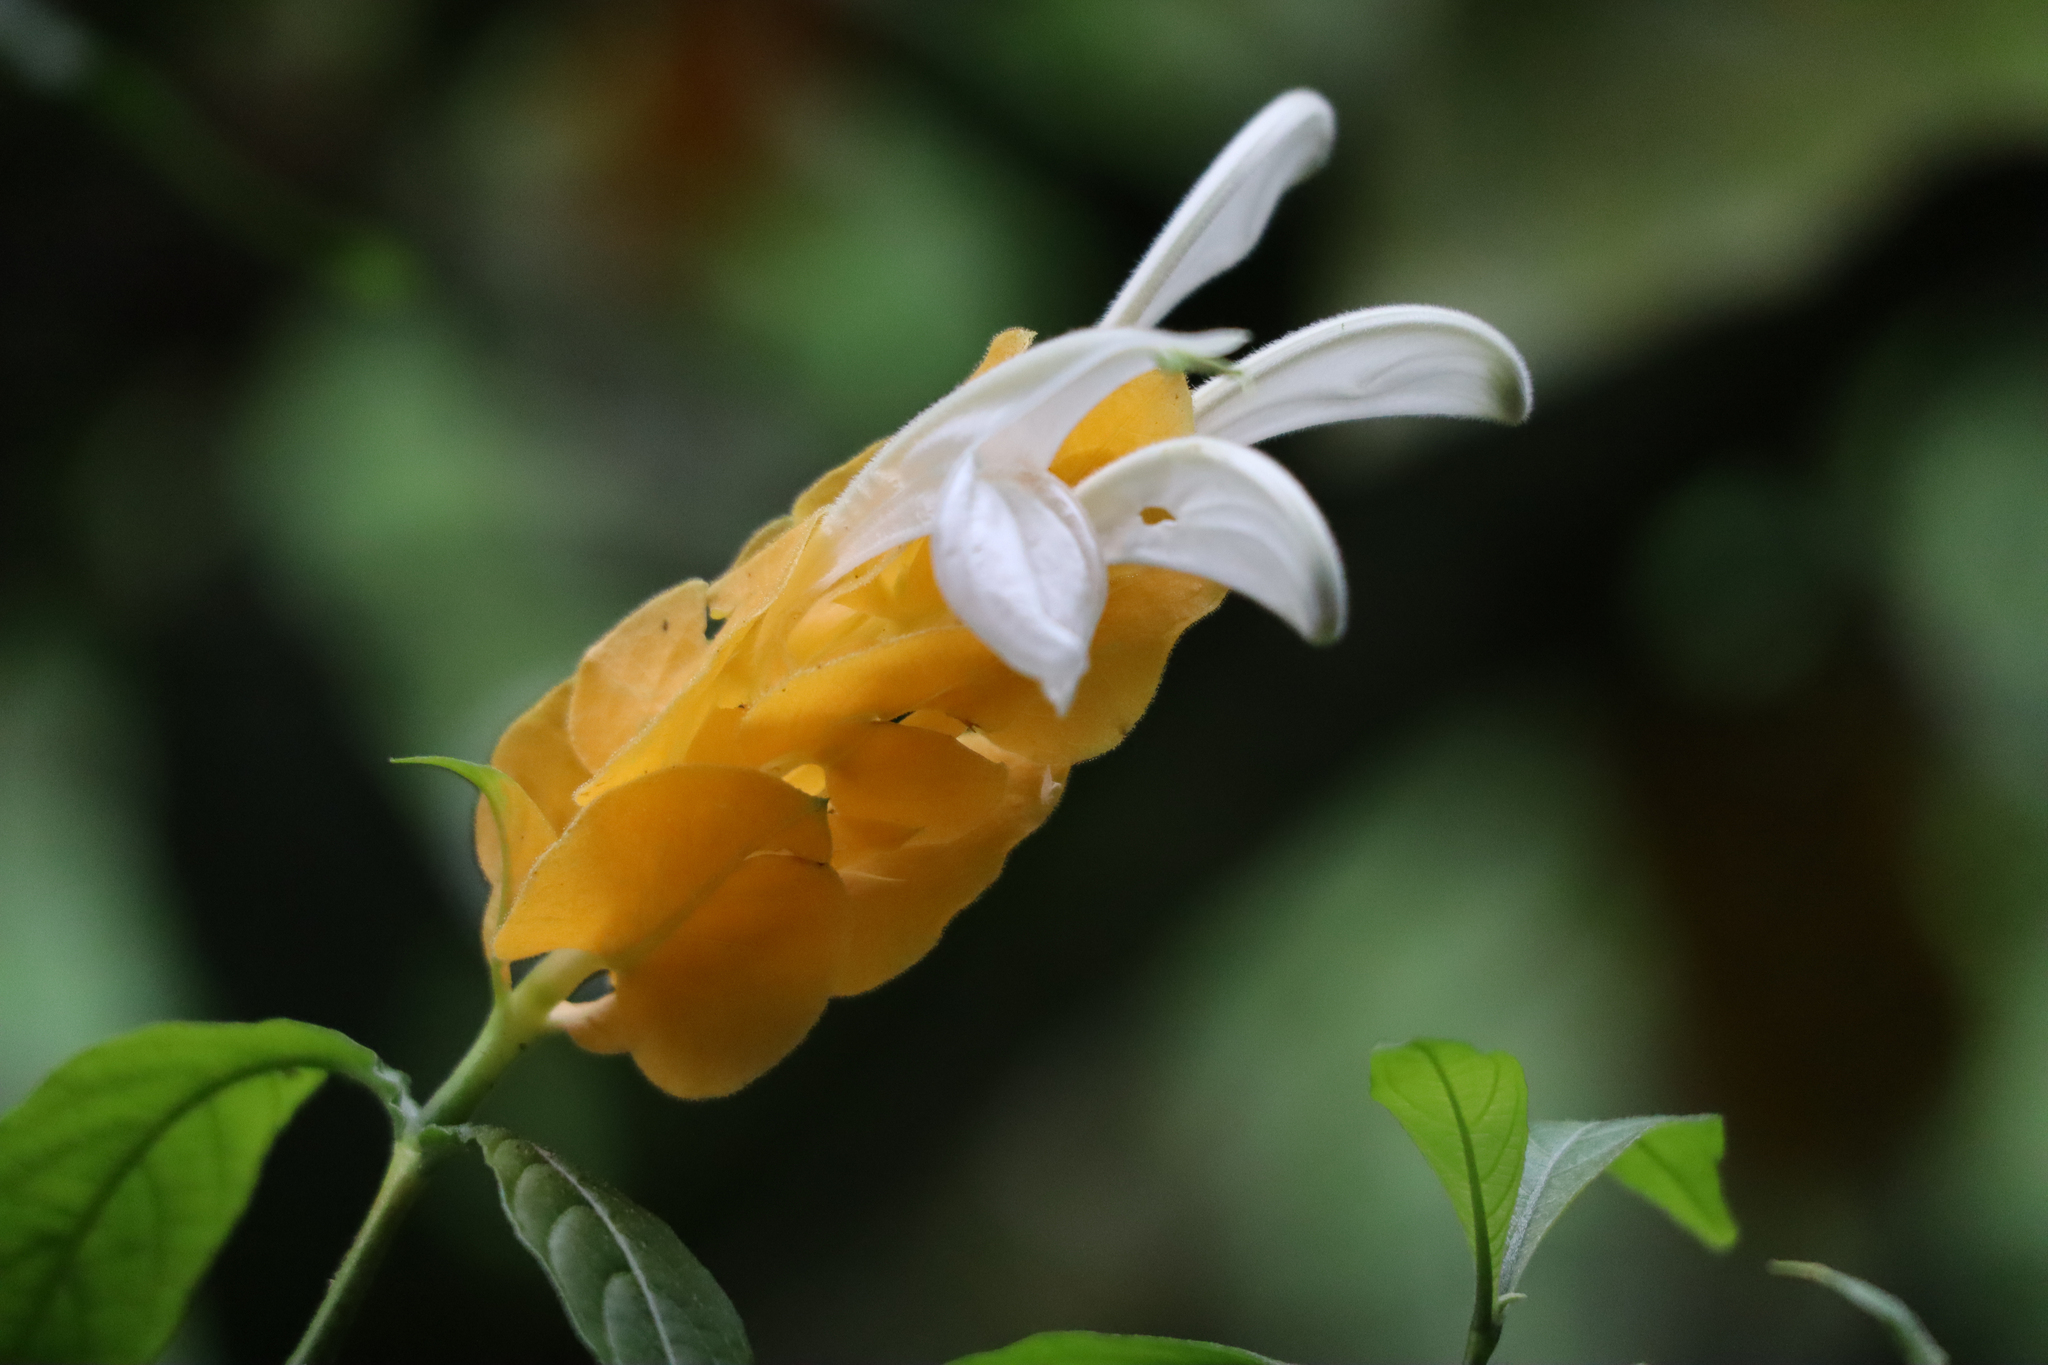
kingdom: Plantae
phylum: Tracheophyta
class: Magnoliopsida
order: Lamiales
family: Acanthaceae
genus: Pachystachys
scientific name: Pachystachys lutea
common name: Golden shrimp-plant
